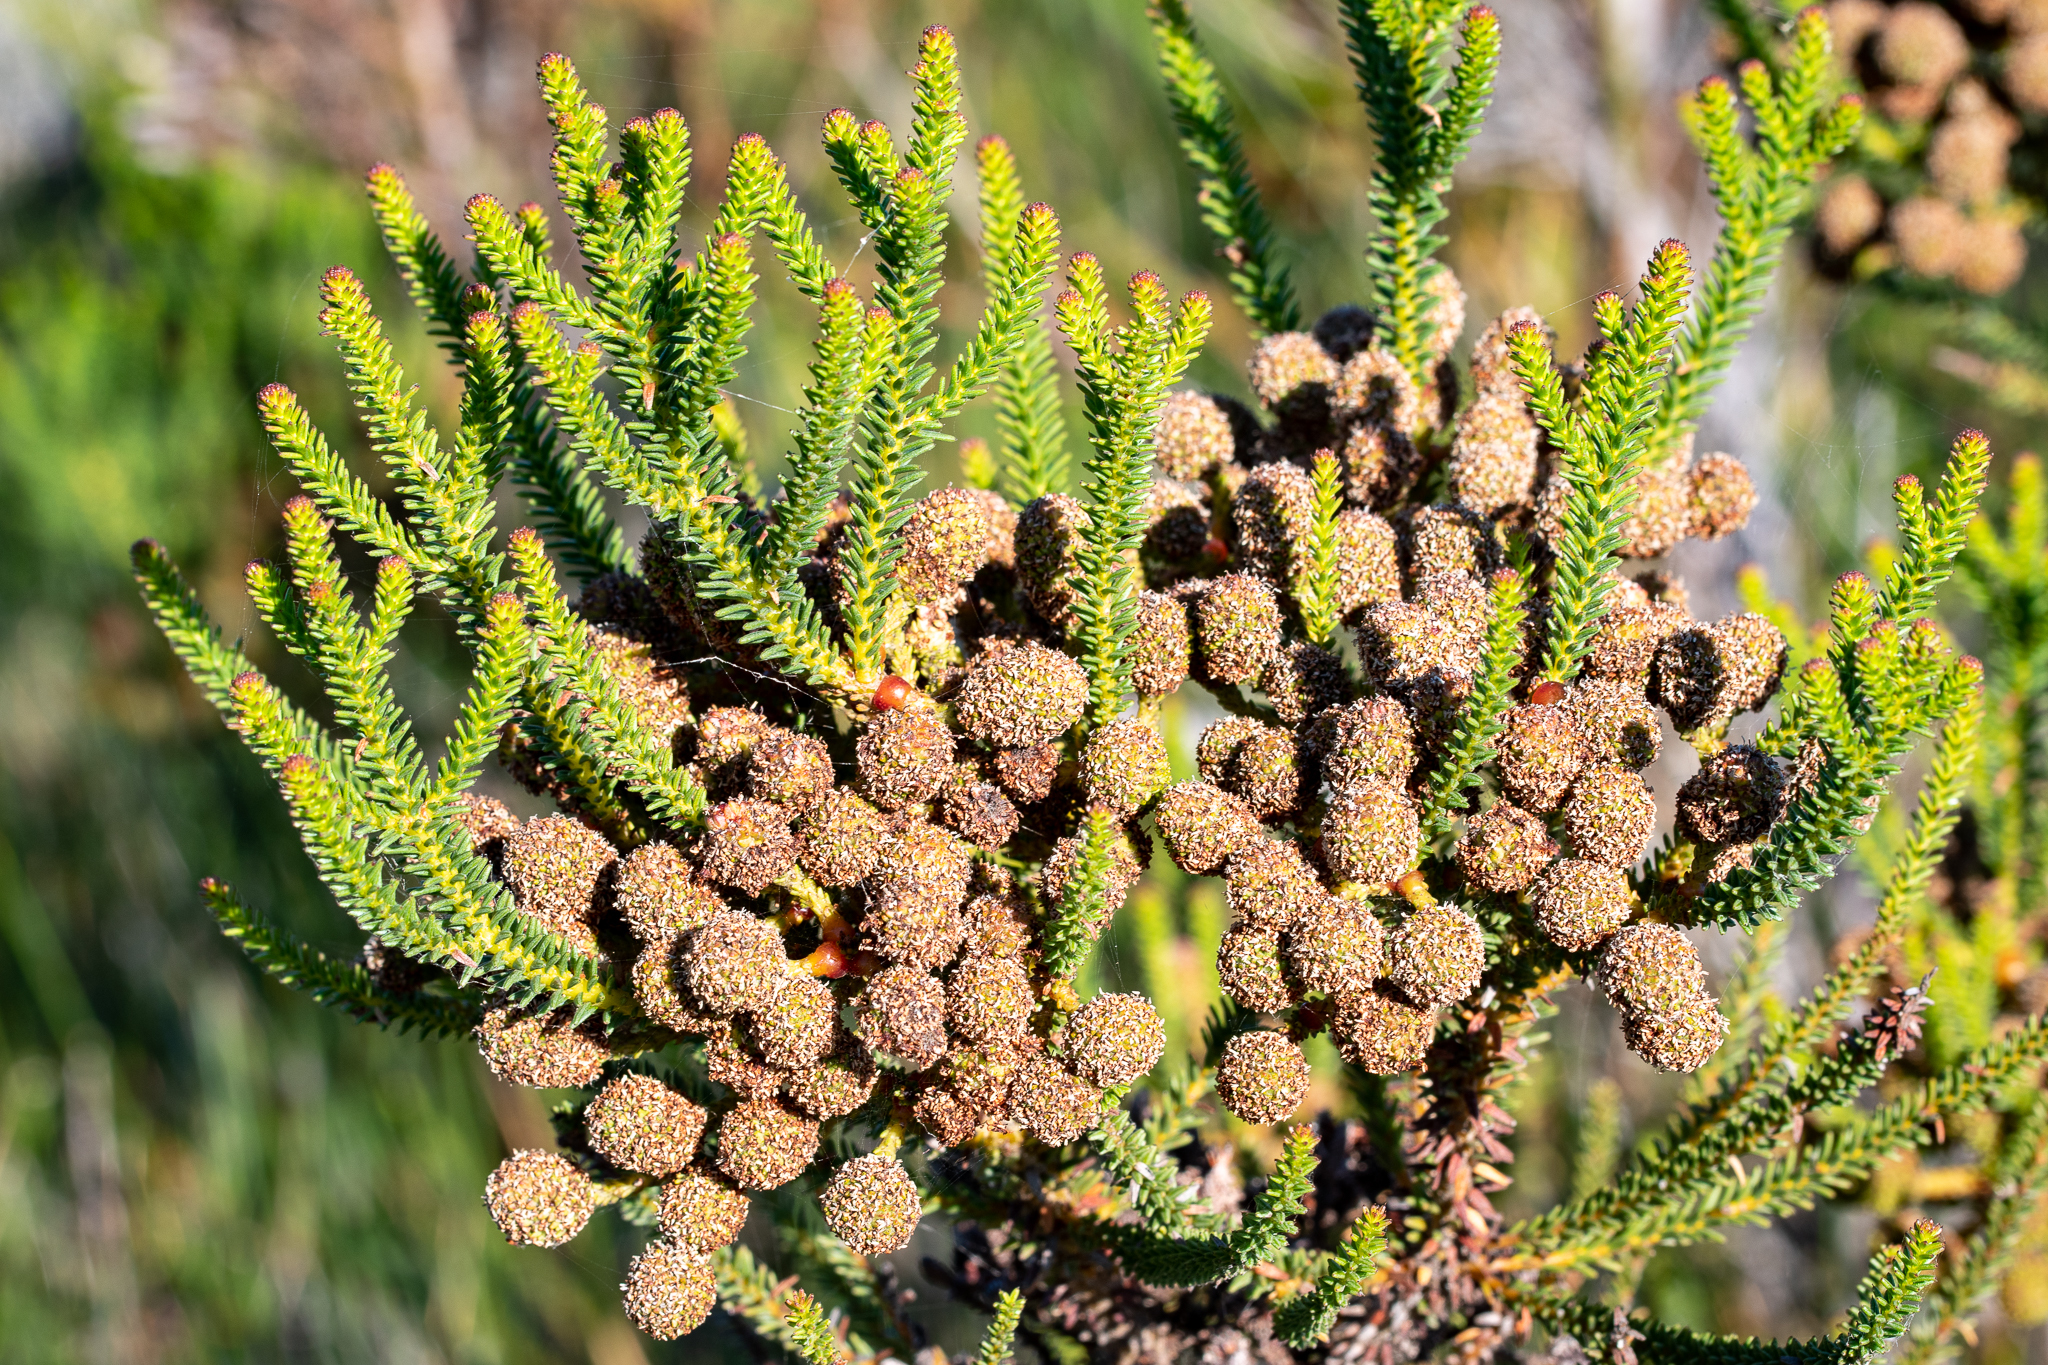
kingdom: Plantae
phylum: Tracheophyta
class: Magnoliopsida
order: Bruniales
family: Bruniaceae
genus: Berzelia
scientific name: Berzelia abrotanoides
